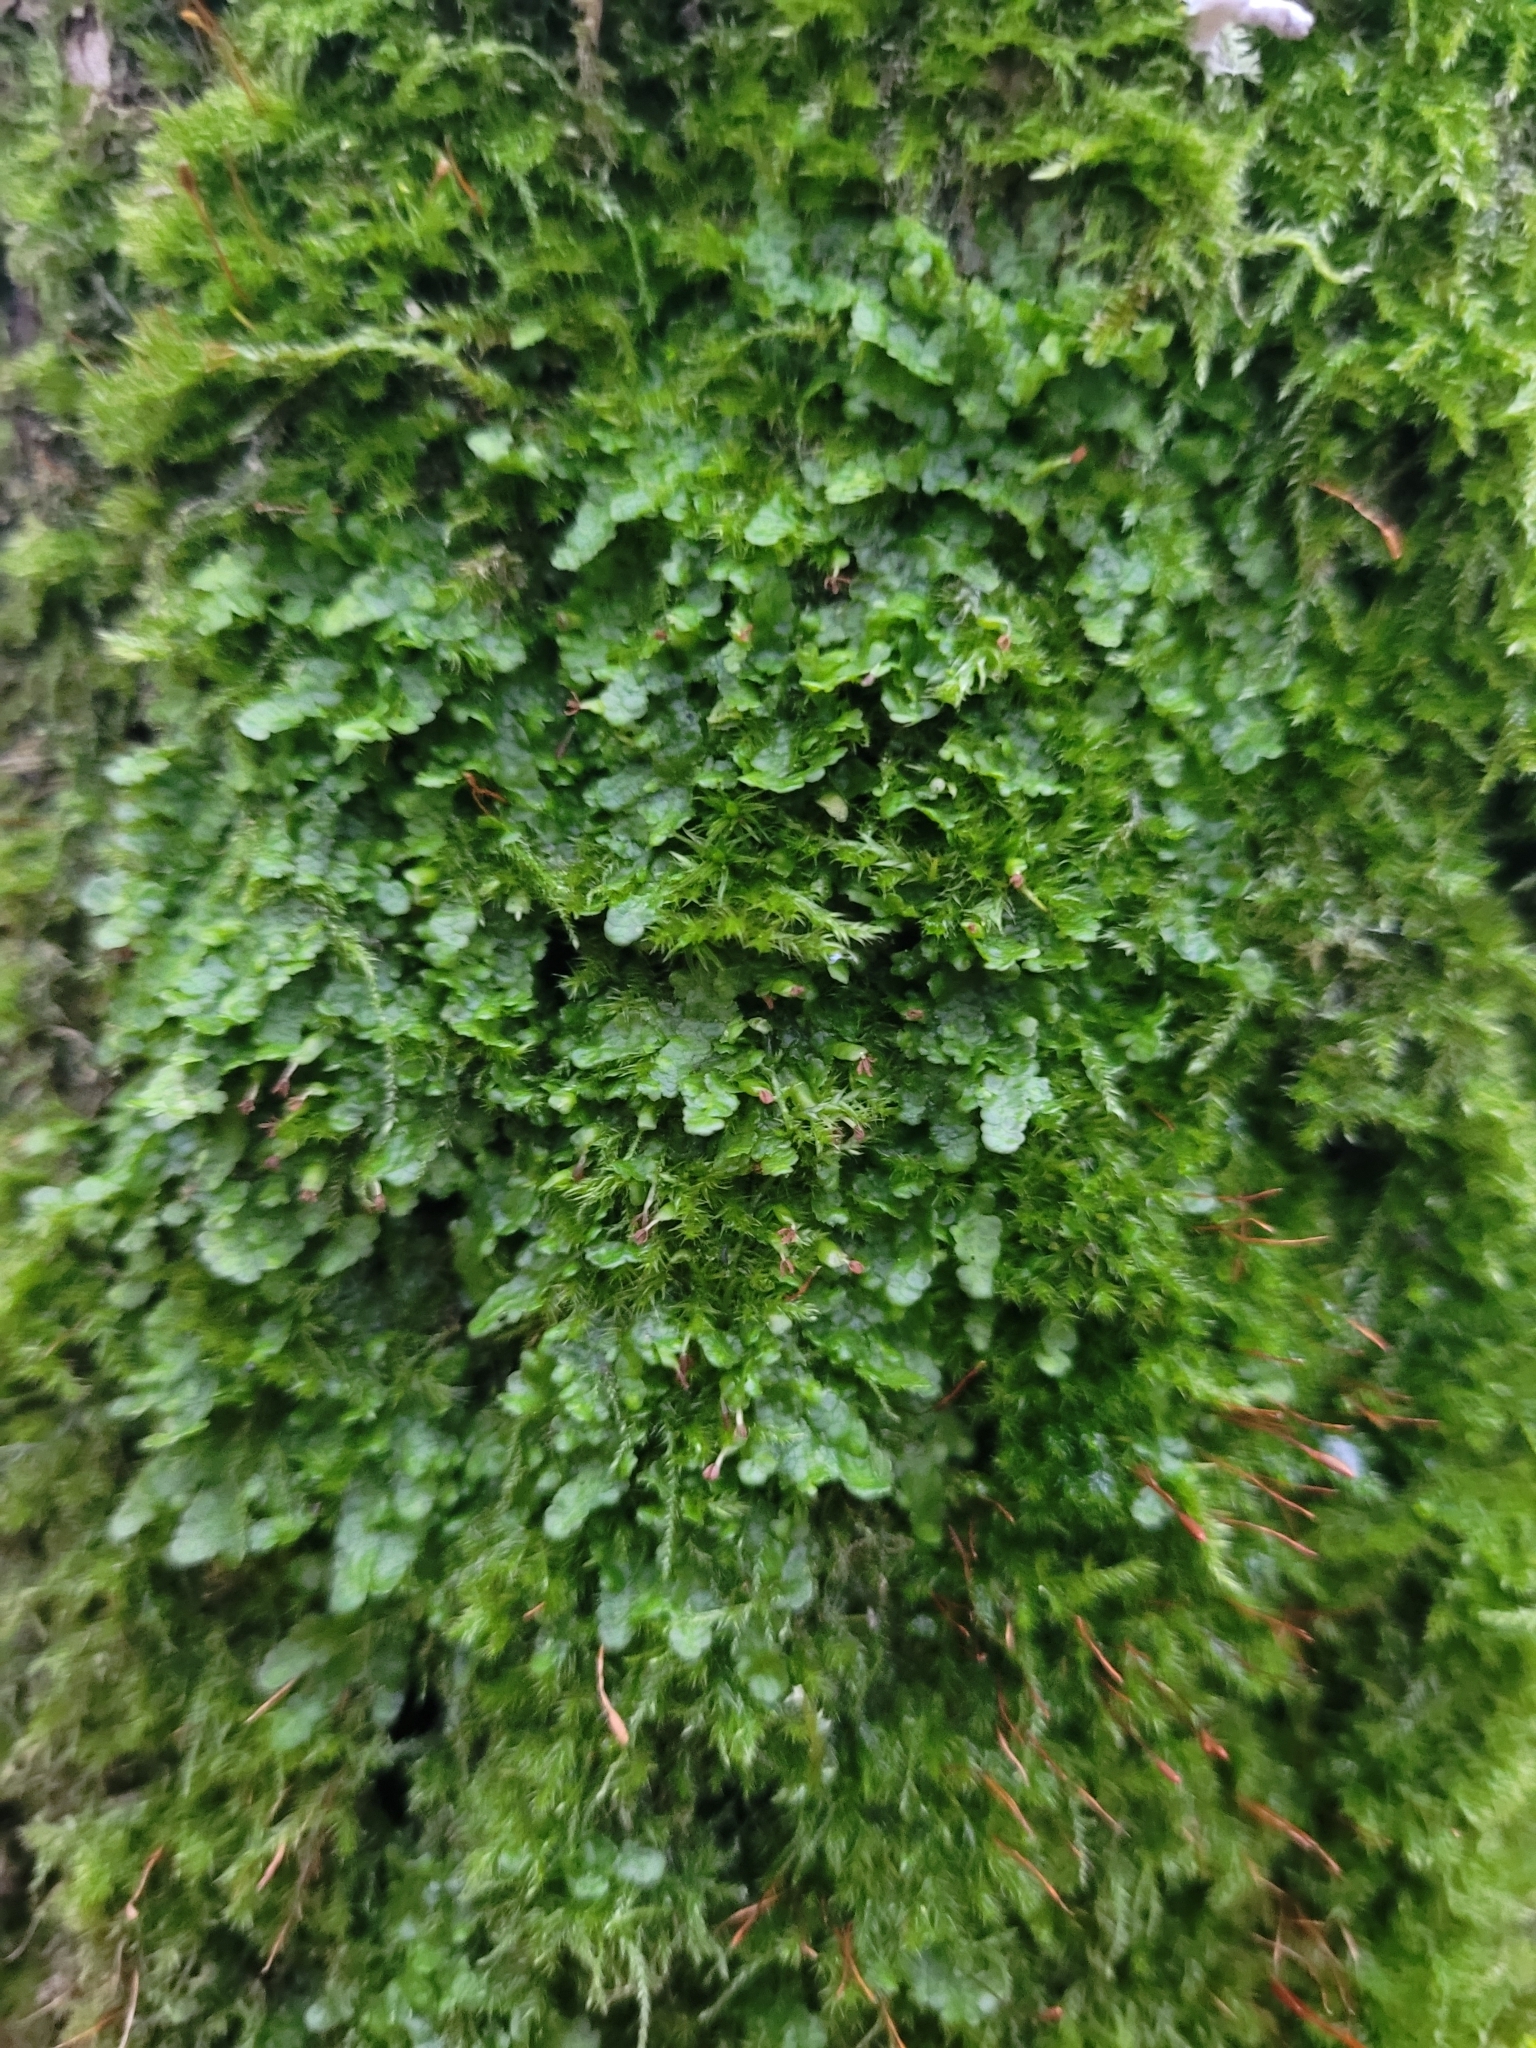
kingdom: Plantae
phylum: Marchantiophyta
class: Jungermanniopsida
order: Porellales
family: Radulaceae
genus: Radula
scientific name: Radula complanata
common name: Flat-leaved scalewort
